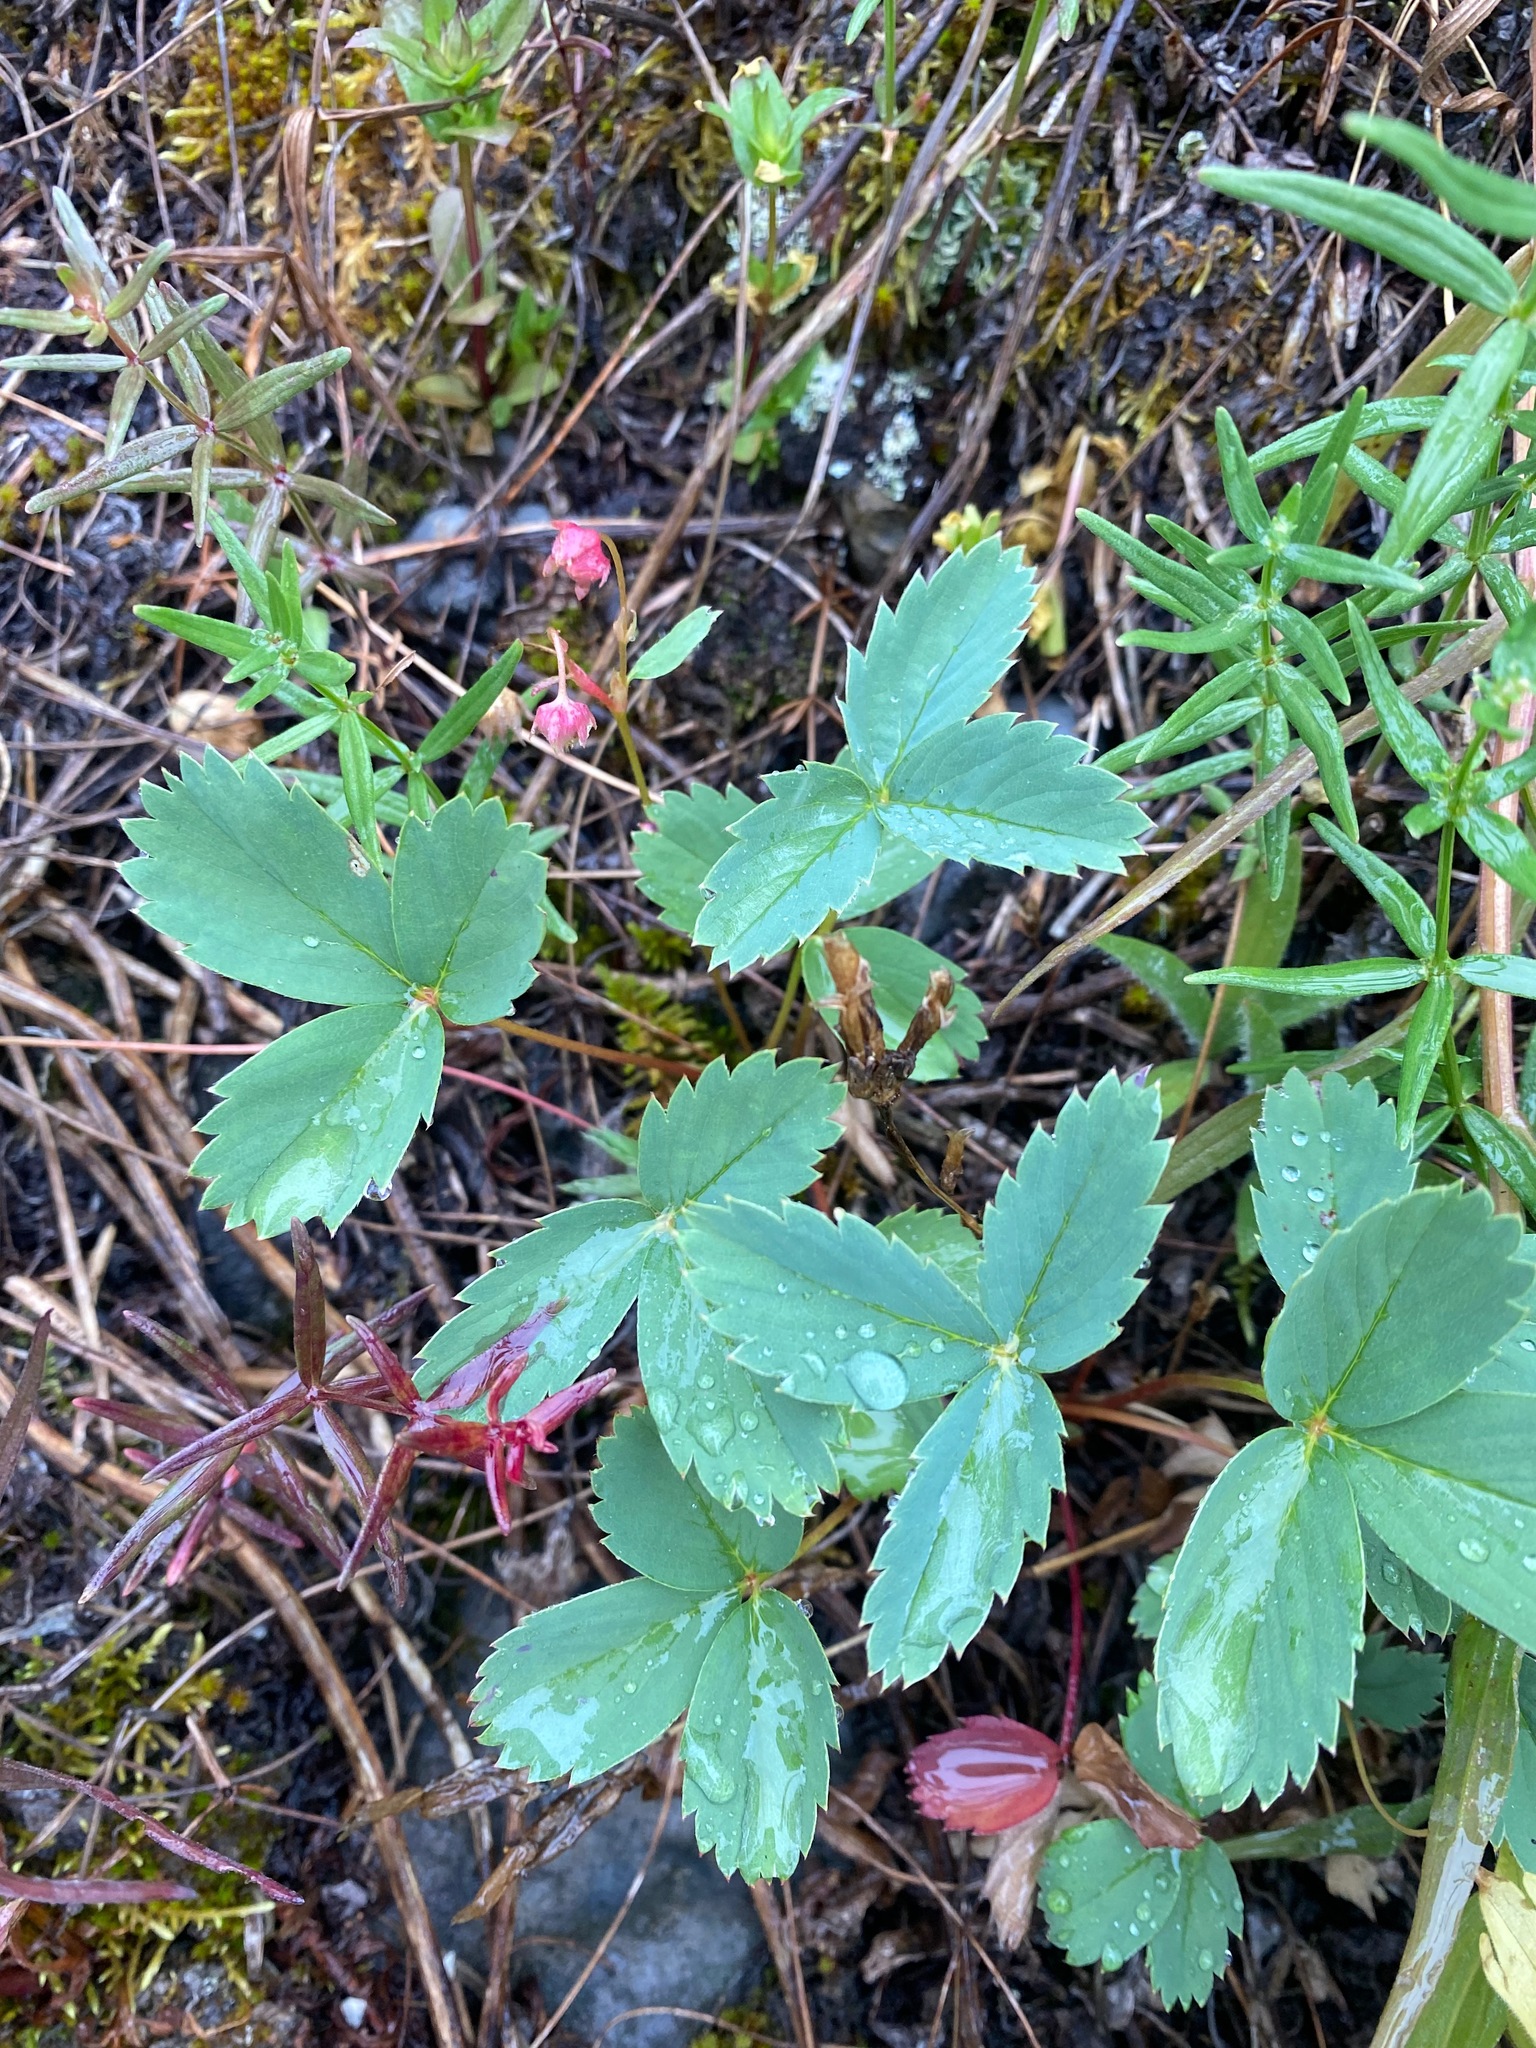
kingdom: Plantae
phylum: Tracheophyta
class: Magnoliopsida
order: Rosales
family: Rosaceae
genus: Fragaria
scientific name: Fragaria virginiana
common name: Thickleaved wild strawberry
